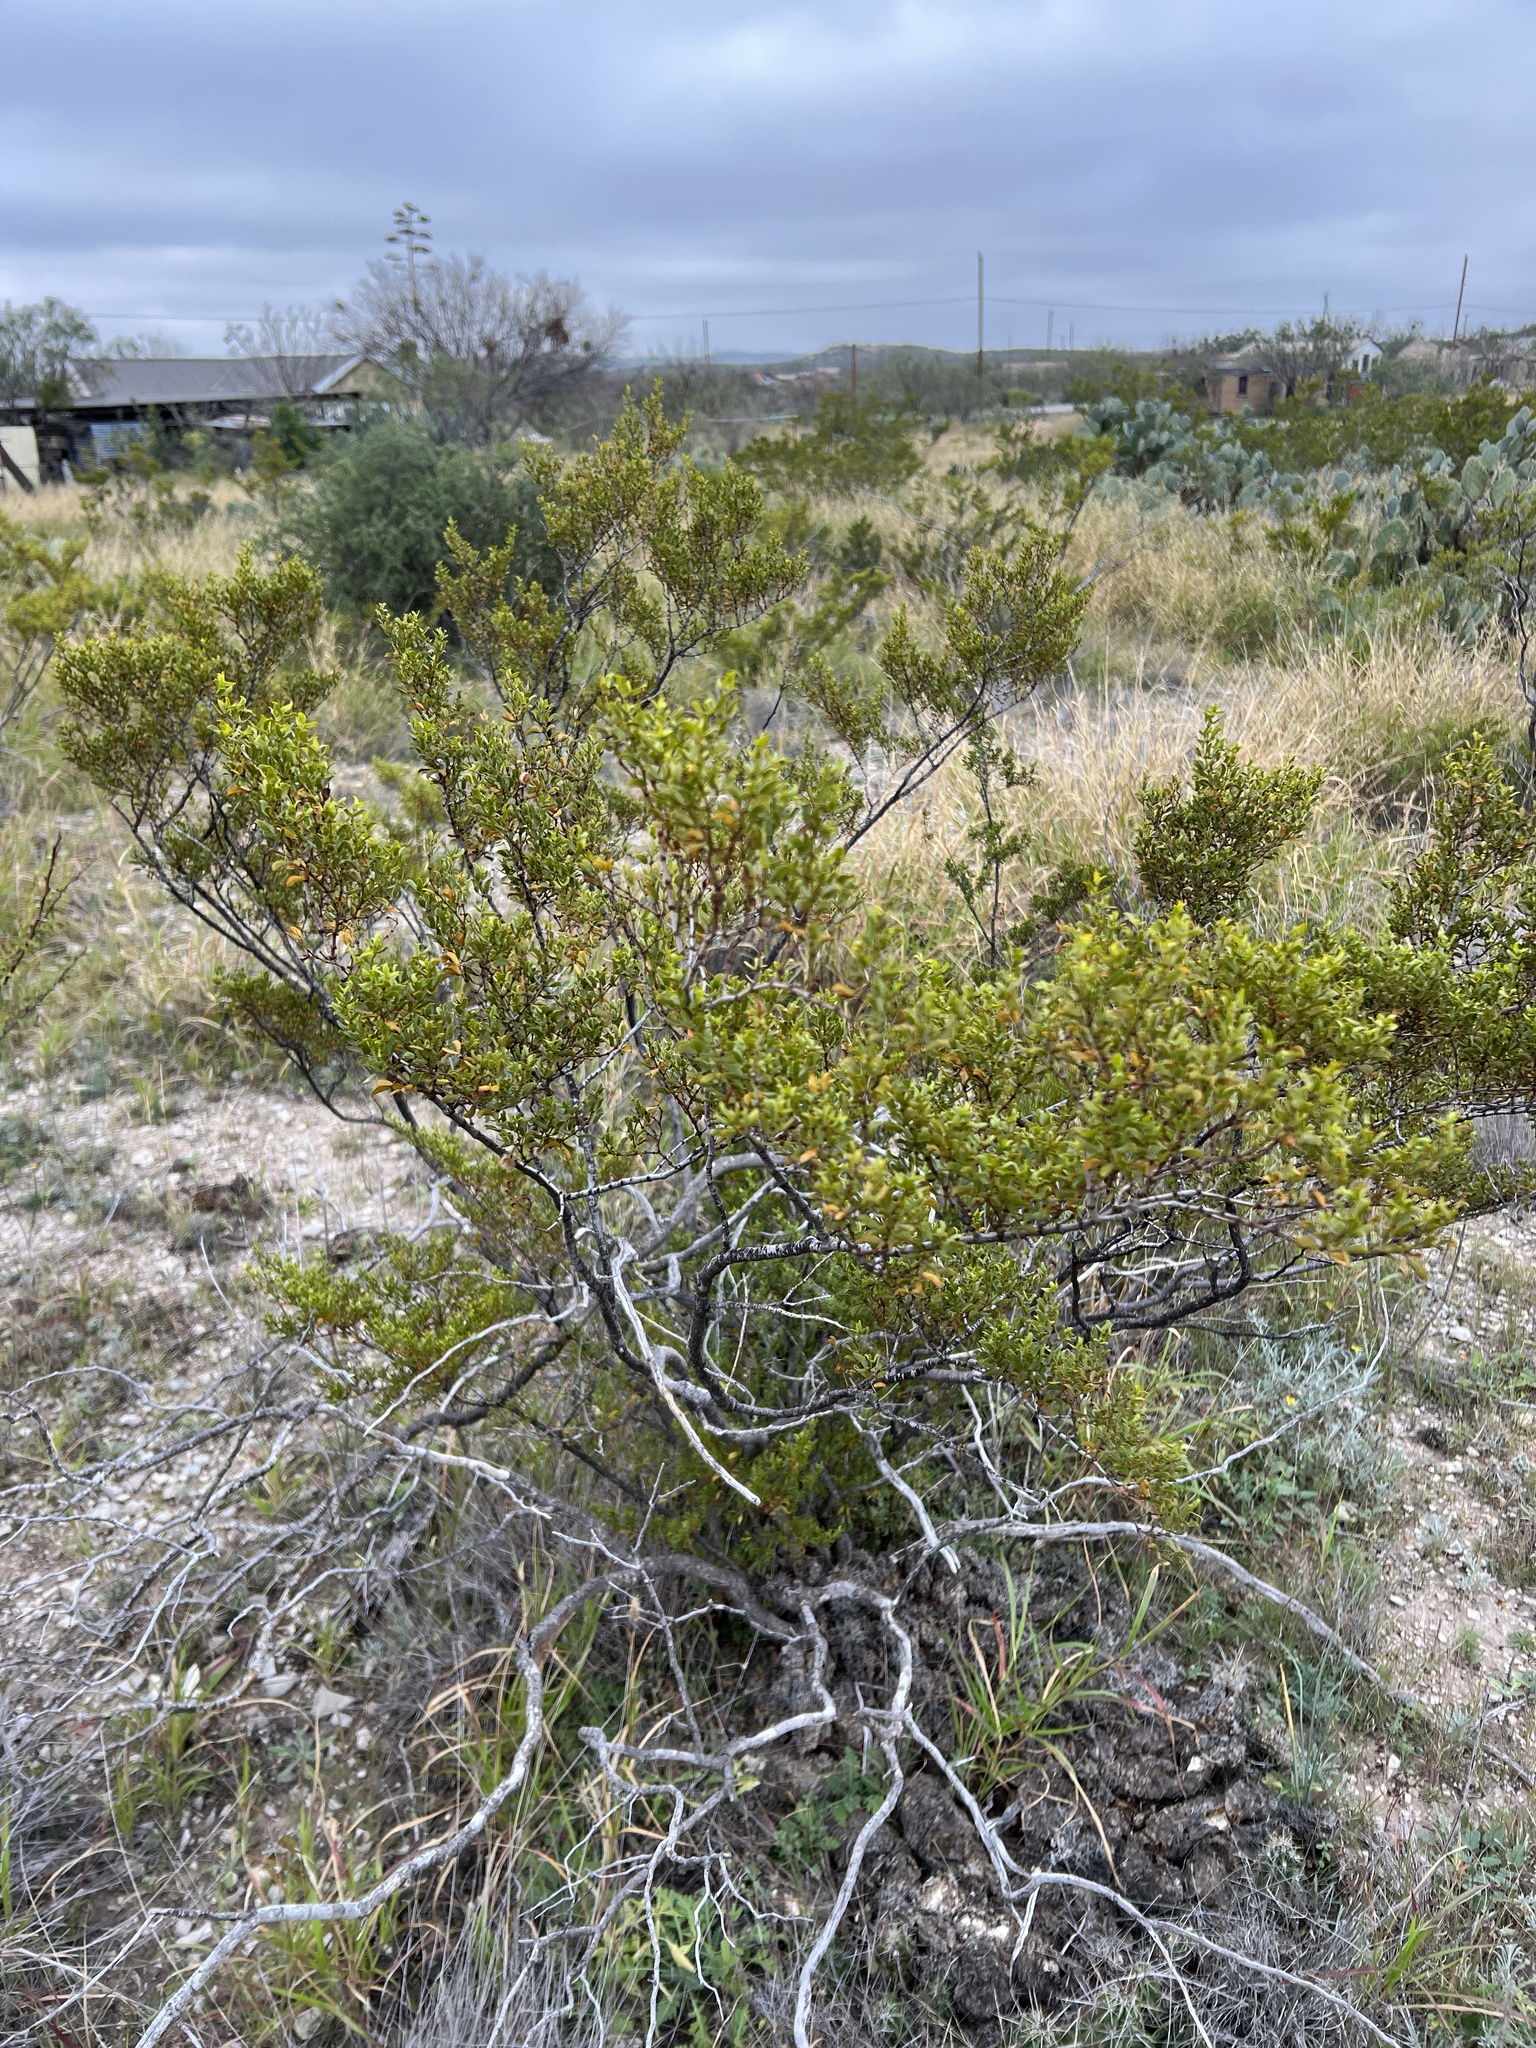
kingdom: Plantae
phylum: Tracheophyta
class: Magnoliopsida
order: Zygophyllales
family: Zygophyllaceae
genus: Larrea
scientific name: Larrea tridentata
